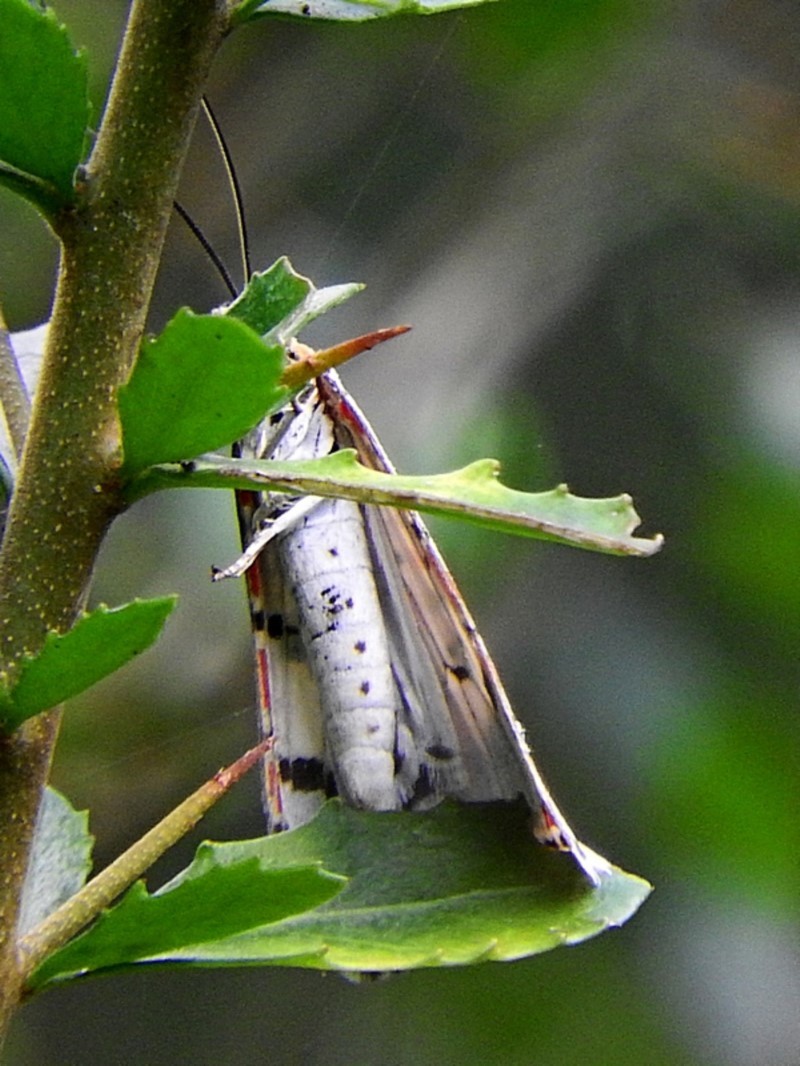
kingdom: Animalia
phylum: Arthropoda
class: Insecta
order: Lepidoptera
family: Erebidae
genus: Utetheisa
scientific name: Utetheisa pulchelloides
